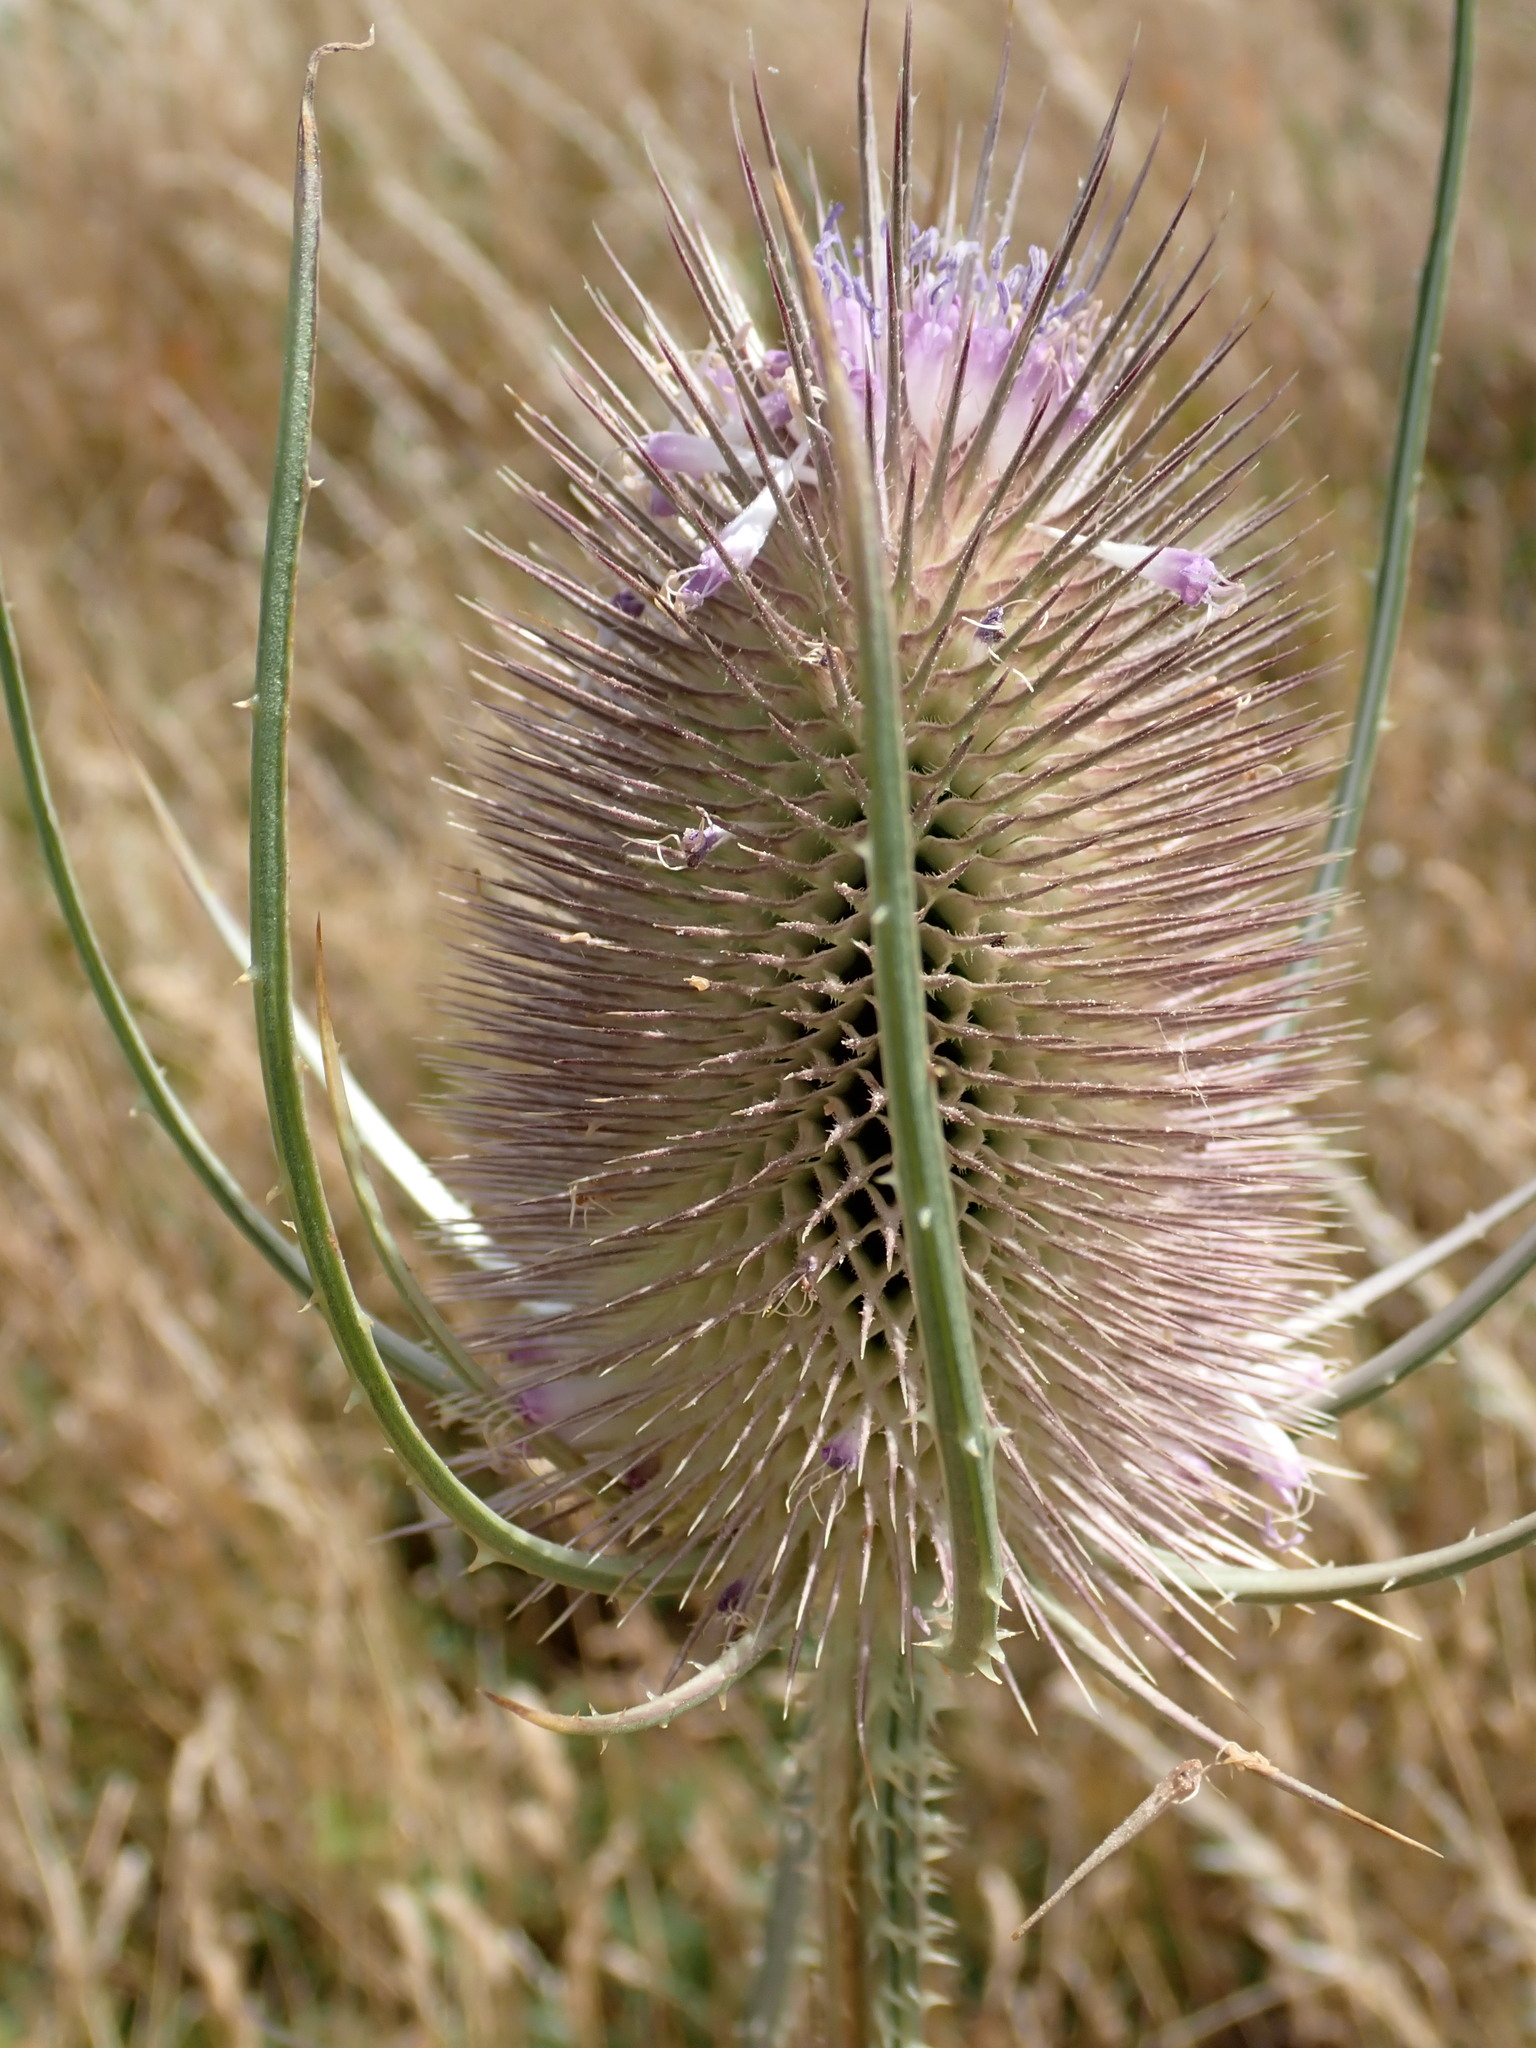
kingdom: Plantae
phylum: Tracheophyta
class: Magnoliopsida
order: Dipsacales
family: Caprifoliaceae
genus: Dipsacus
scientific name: Dipsacus fullonum
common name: Teasel
